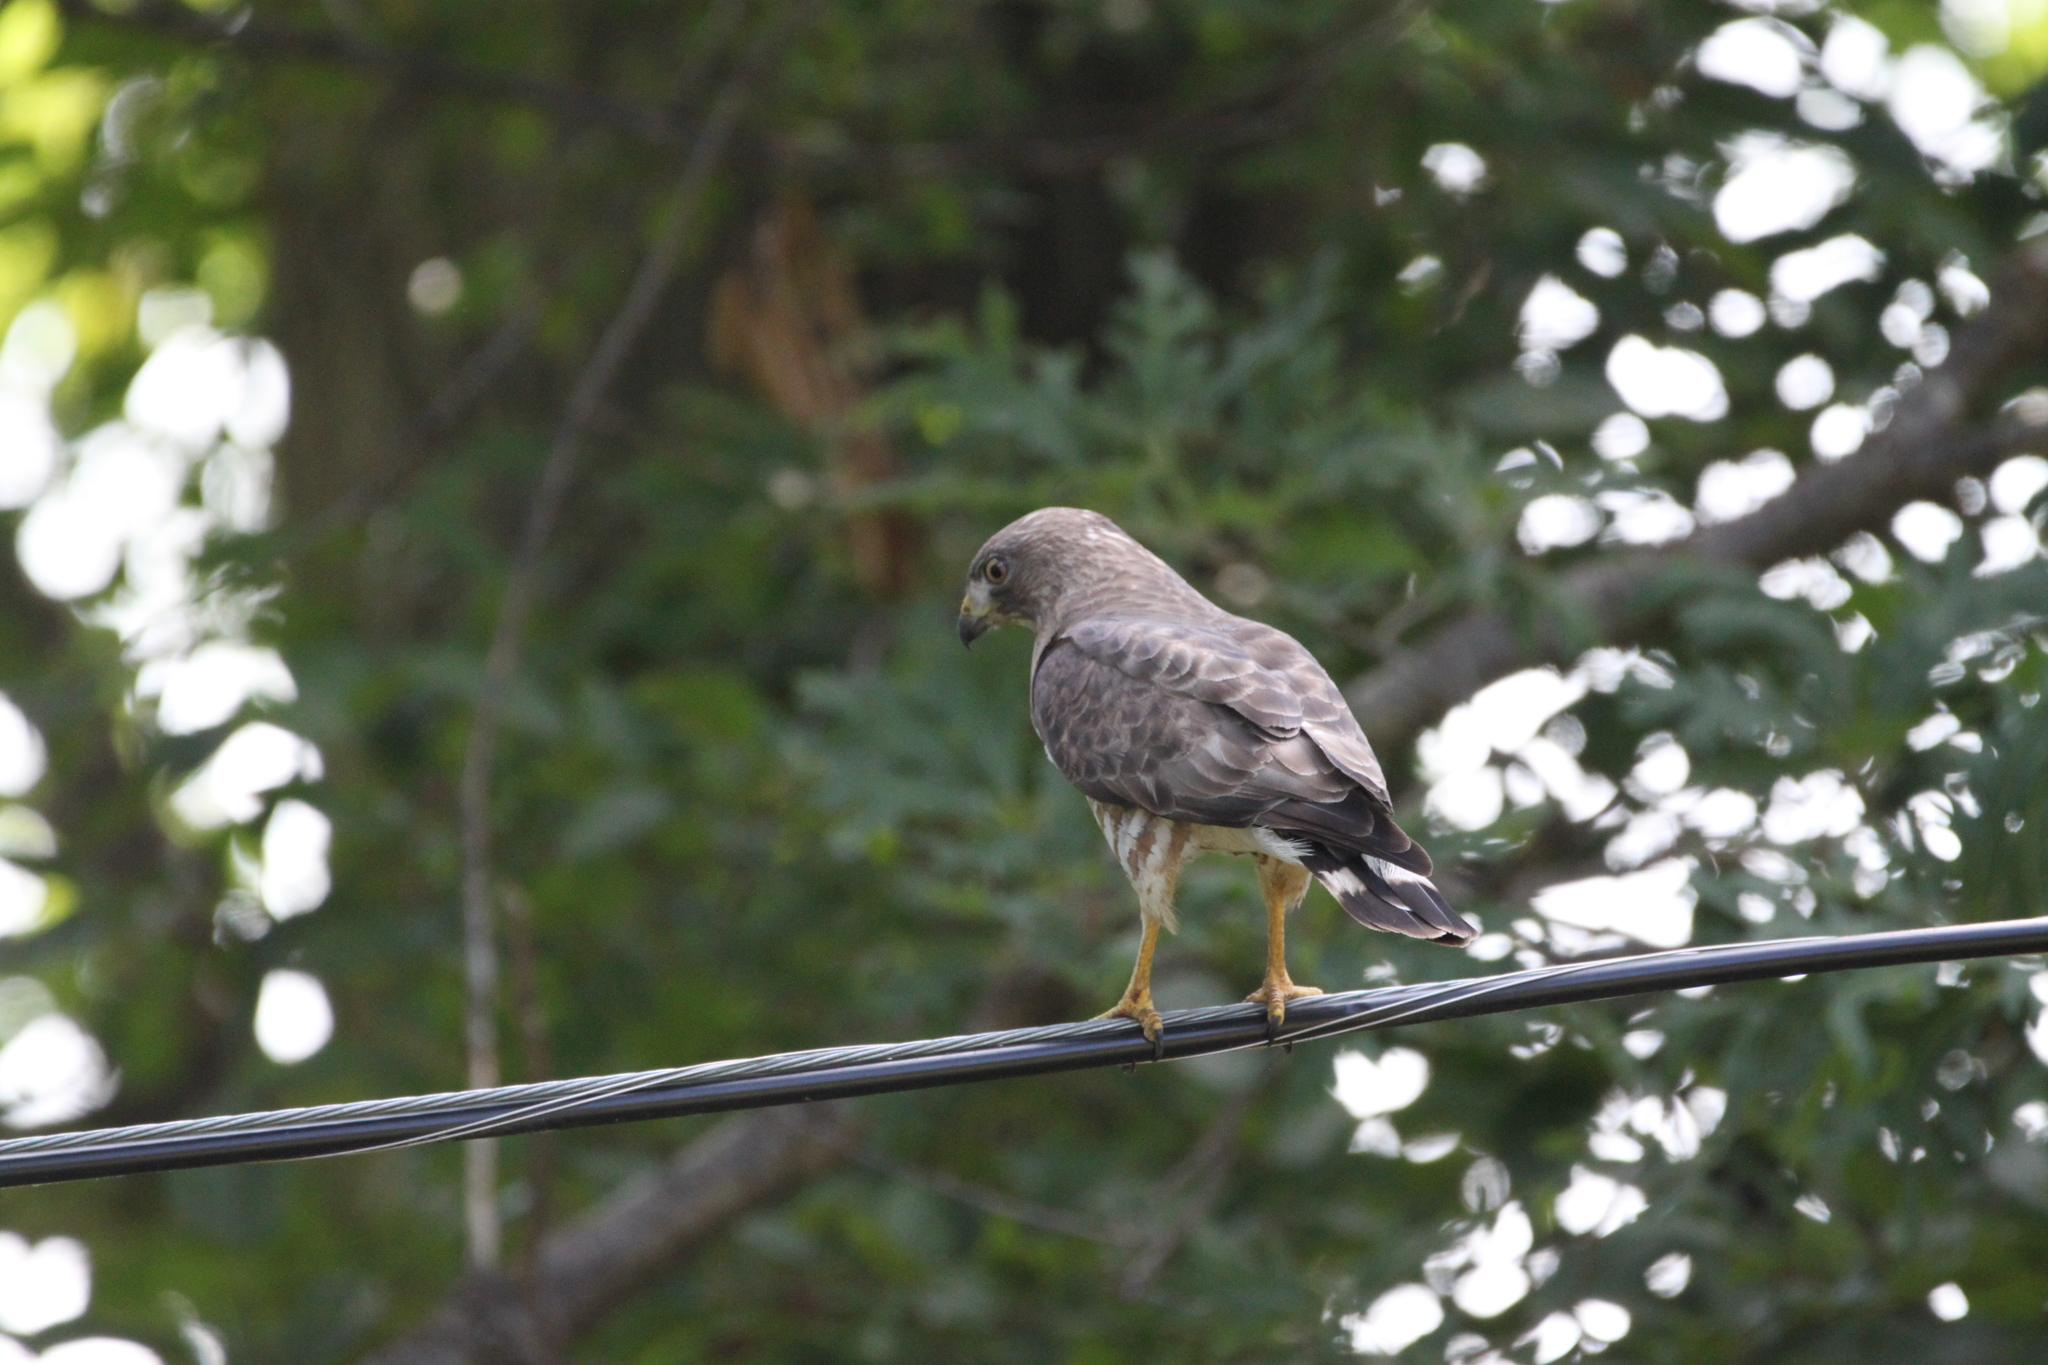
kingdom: Animalia
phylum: Chordata
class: Aves
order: Accipitriformes
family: Accipitridae
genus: Buteo
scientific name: Buteo platypterus
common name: Broad-winged hawk
